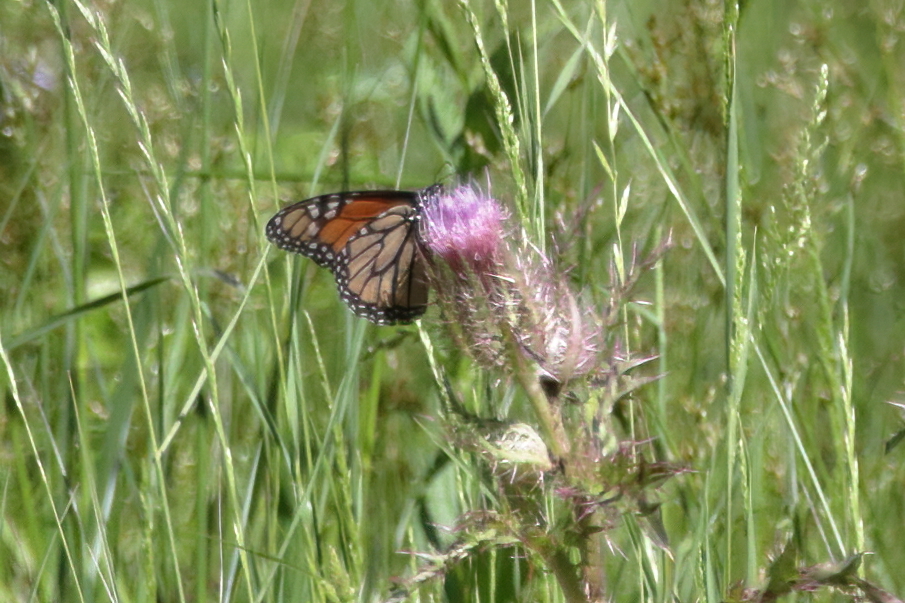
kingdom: Animalia
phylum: Arthropoda
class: Insecta
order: Lepidoptera
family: Nymphalidae
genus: Danaus
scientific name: Danaus plexippus
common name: Monarch
